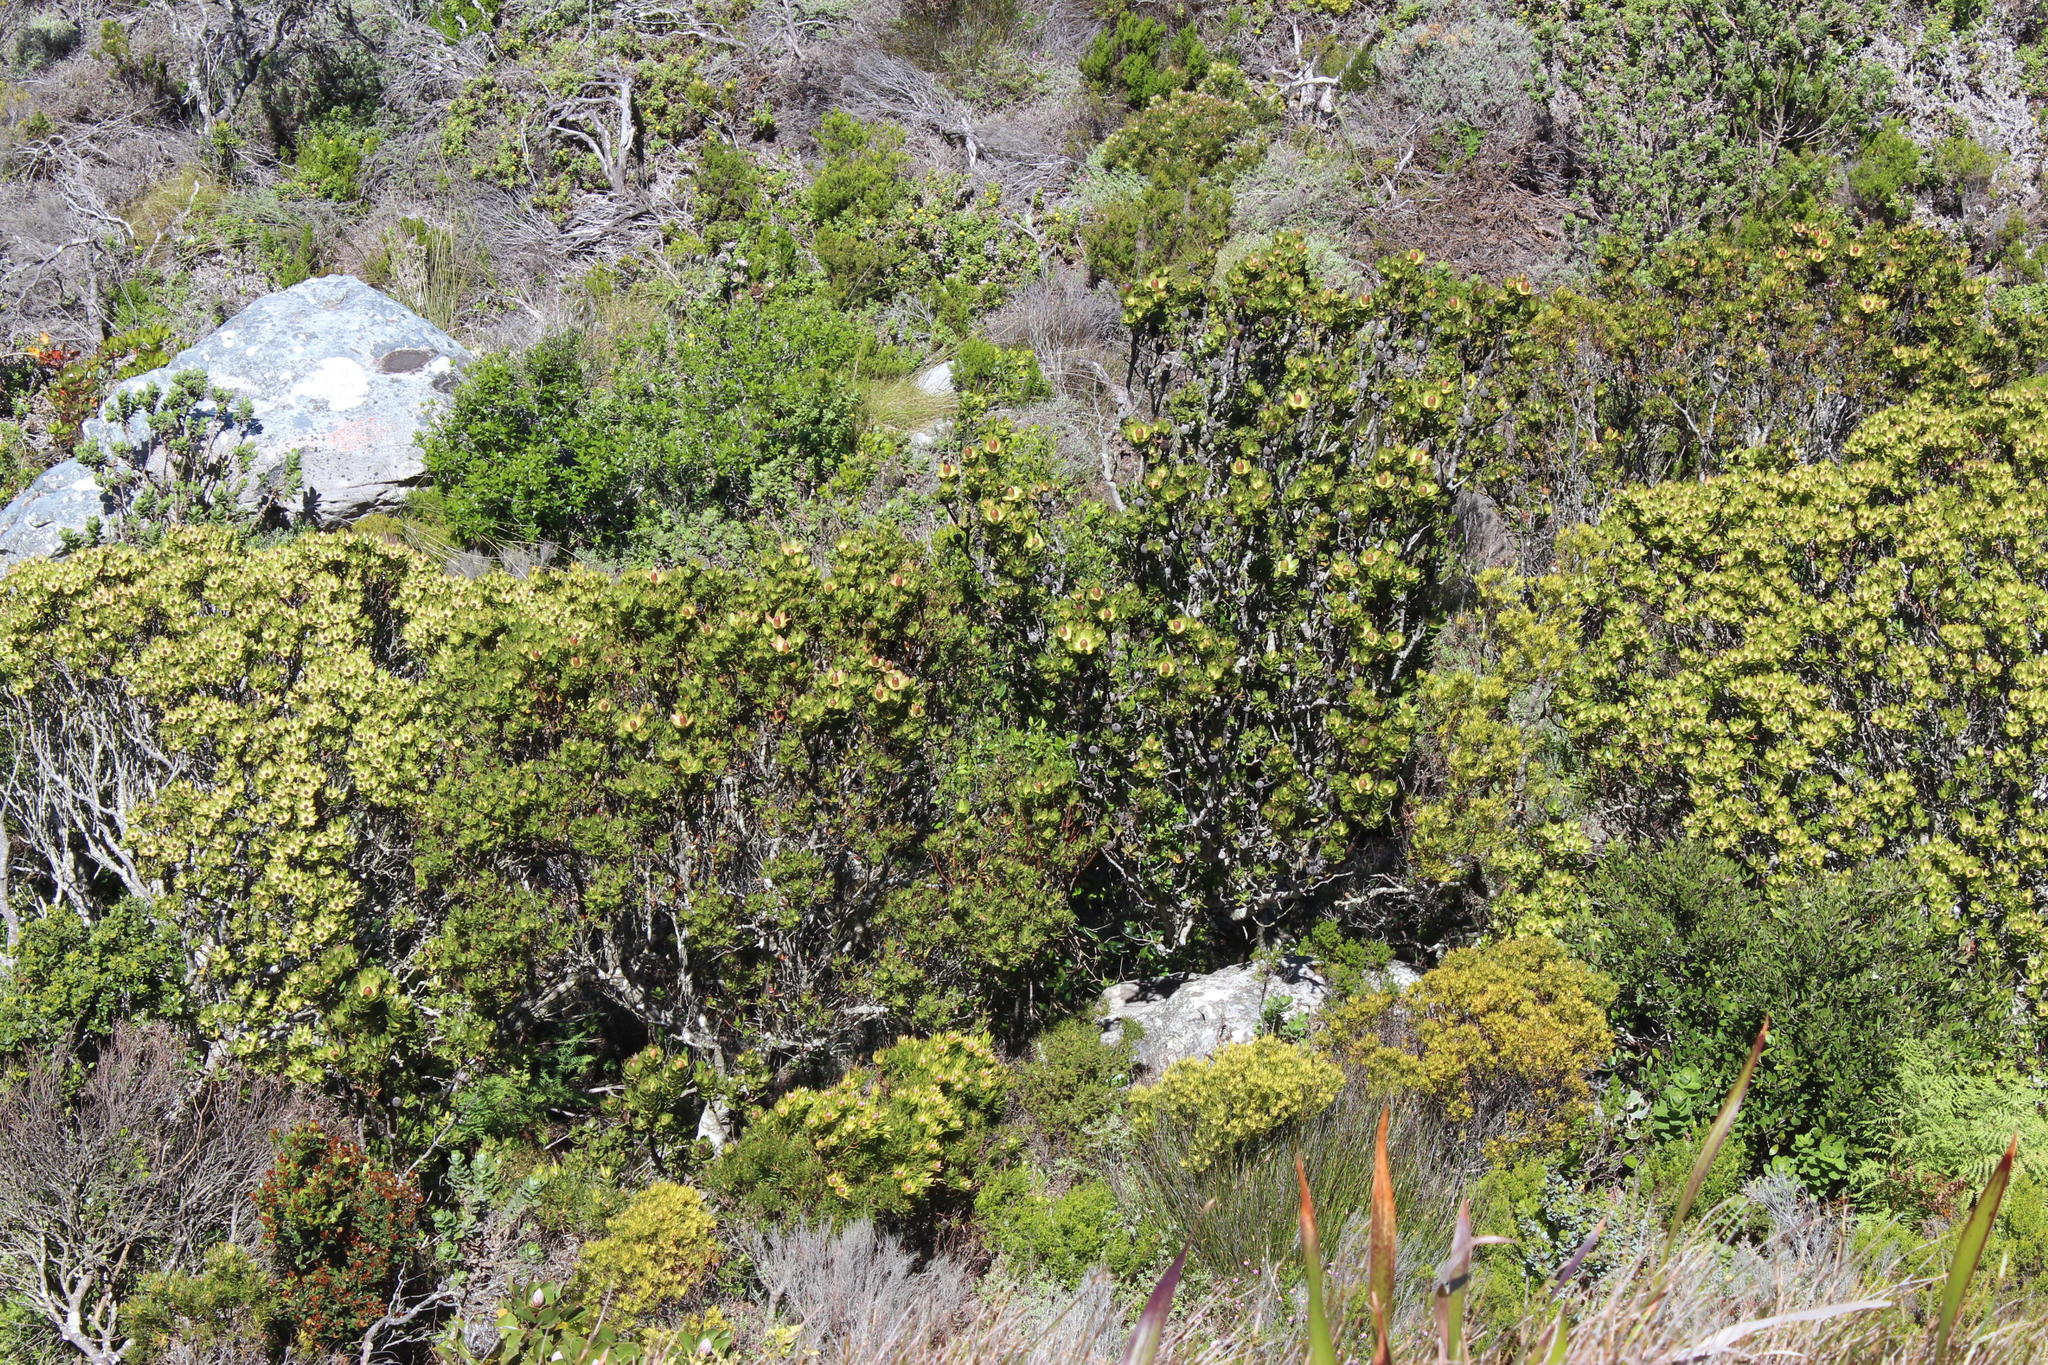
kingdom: Plantae
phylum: Tracheophyta
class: Magnoliopsida
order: Proteales
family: Proteaceae
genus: Leucadendron
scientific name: Leucadendron strobilinum
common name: Mountain rose
